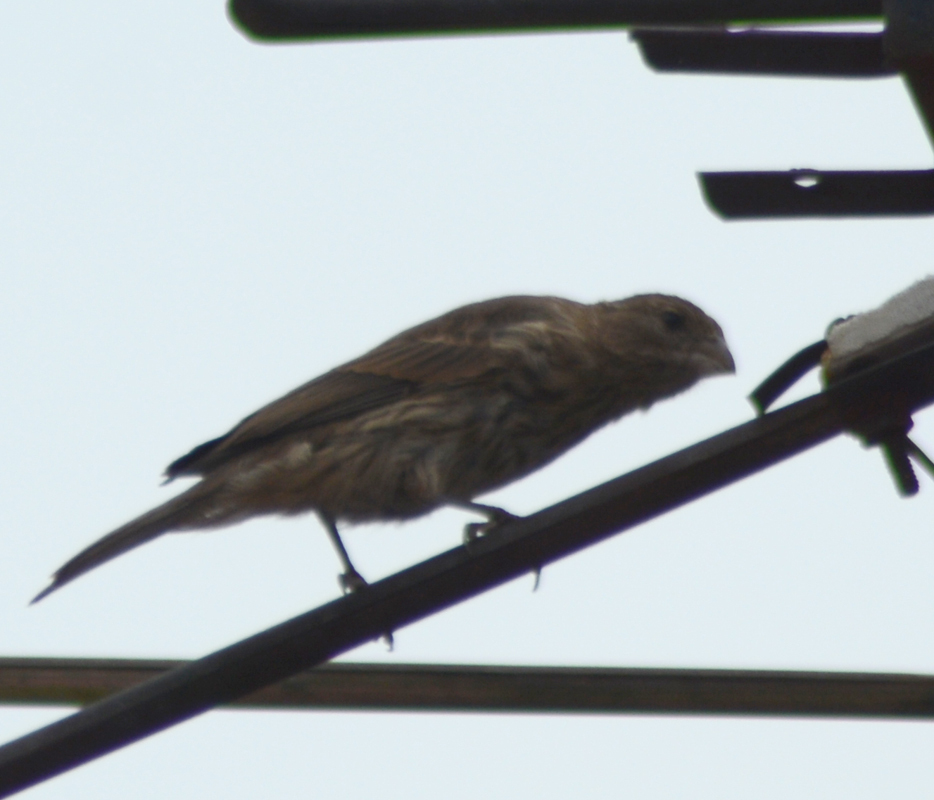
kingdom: Animalia
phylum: Chordata
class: Aves
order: Passeriformes
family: Fringillidae
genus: Haemorhous
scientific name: Haemorhous mexicanus
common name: House finch
